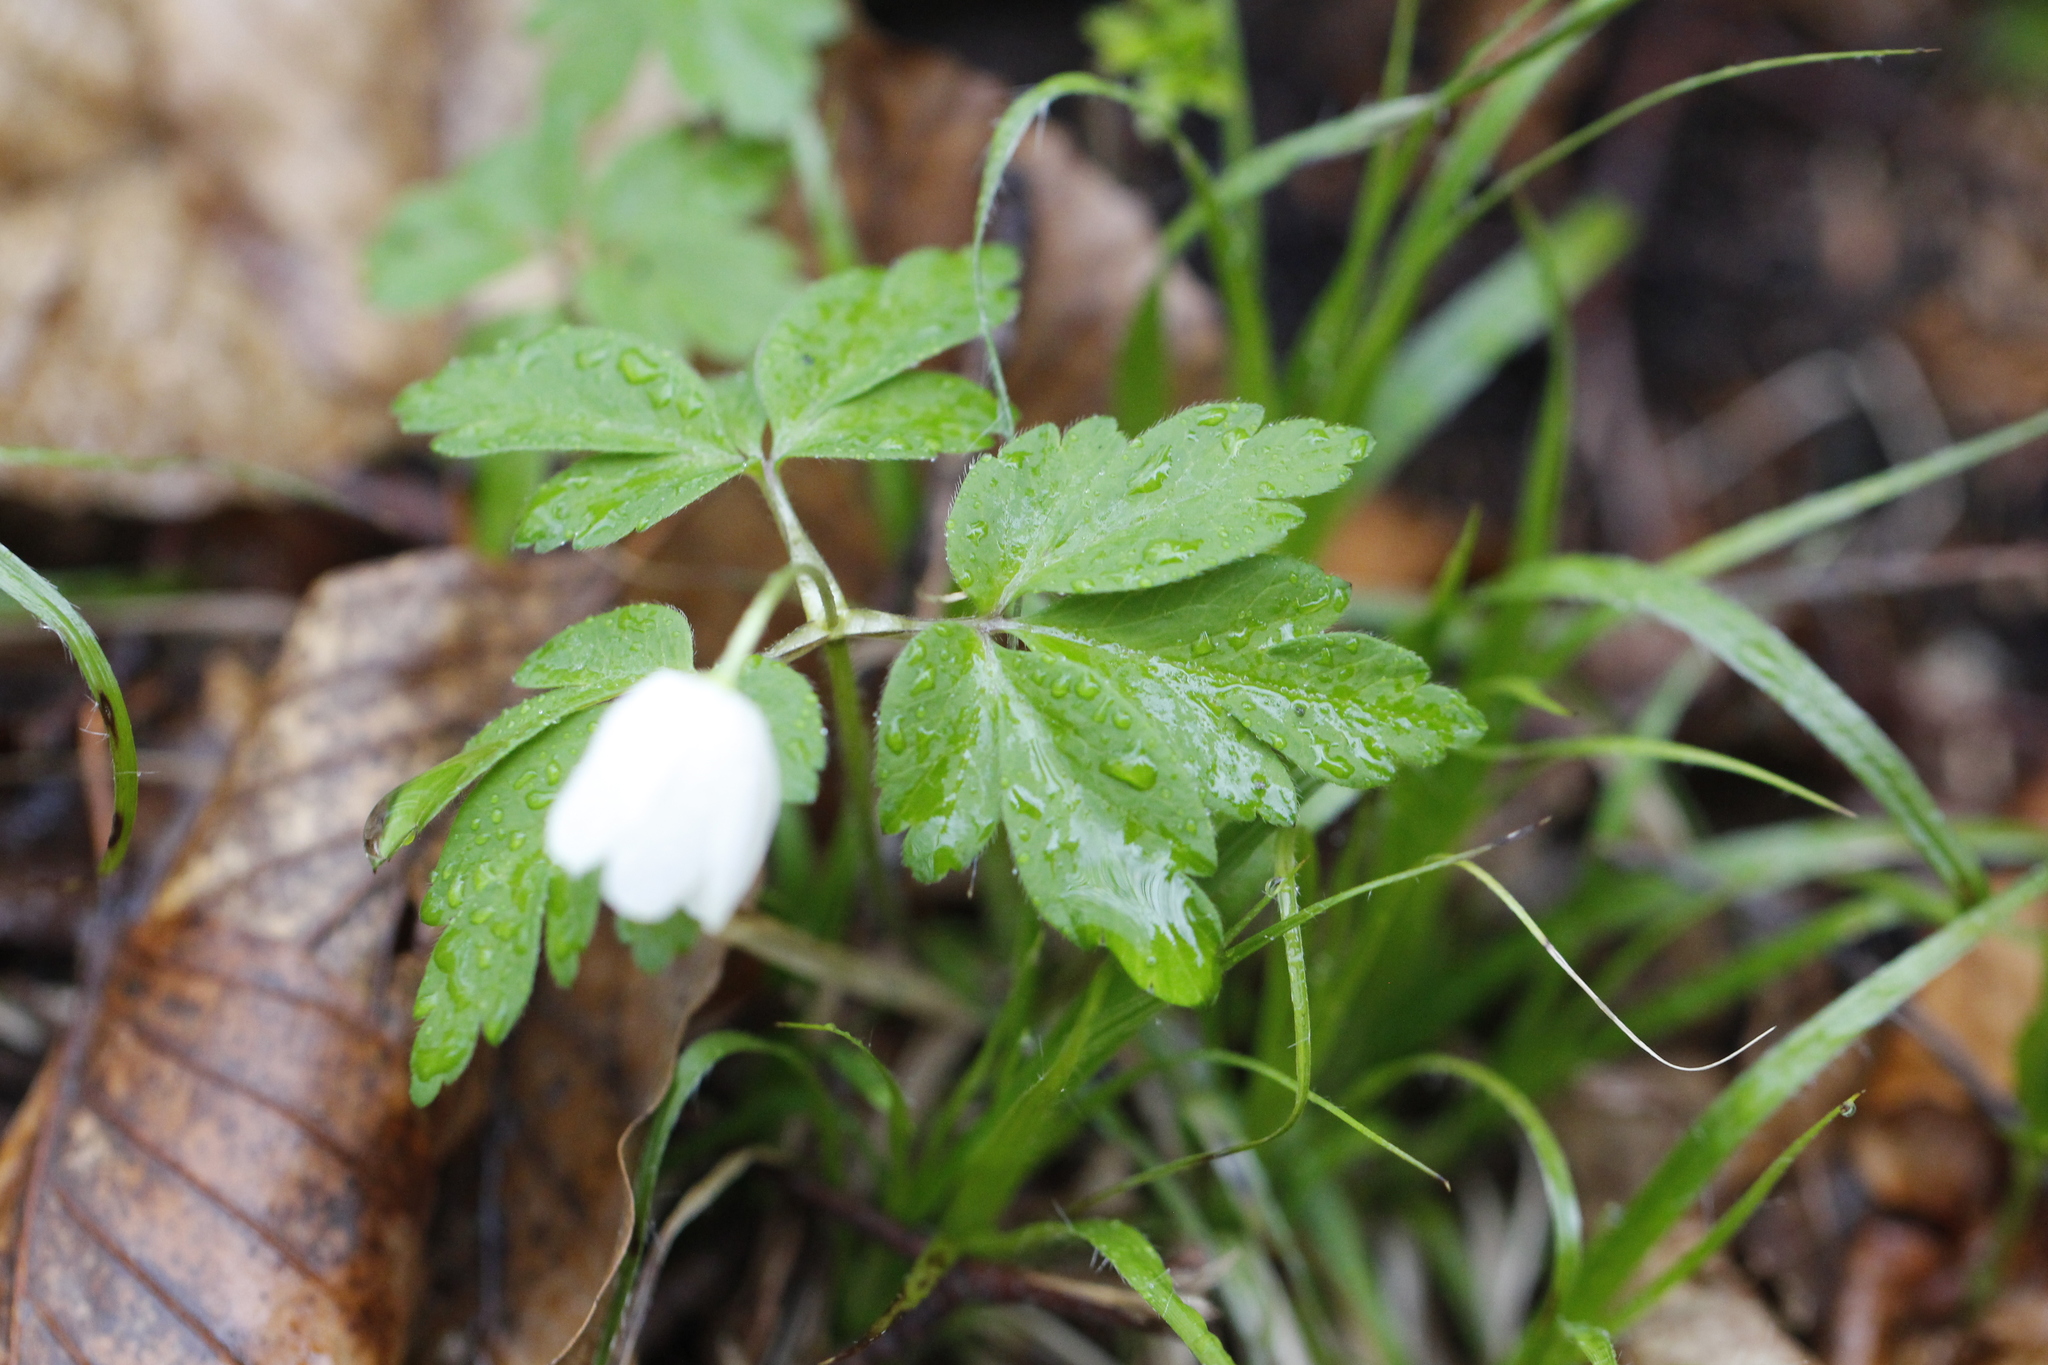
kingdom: Plantae
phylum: Tracheophyta
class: Magnoliopsida
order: Ranunculales
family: Ranunculaceae
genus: Anemone
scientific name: Anemone nemorosa
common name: Wood anemone
